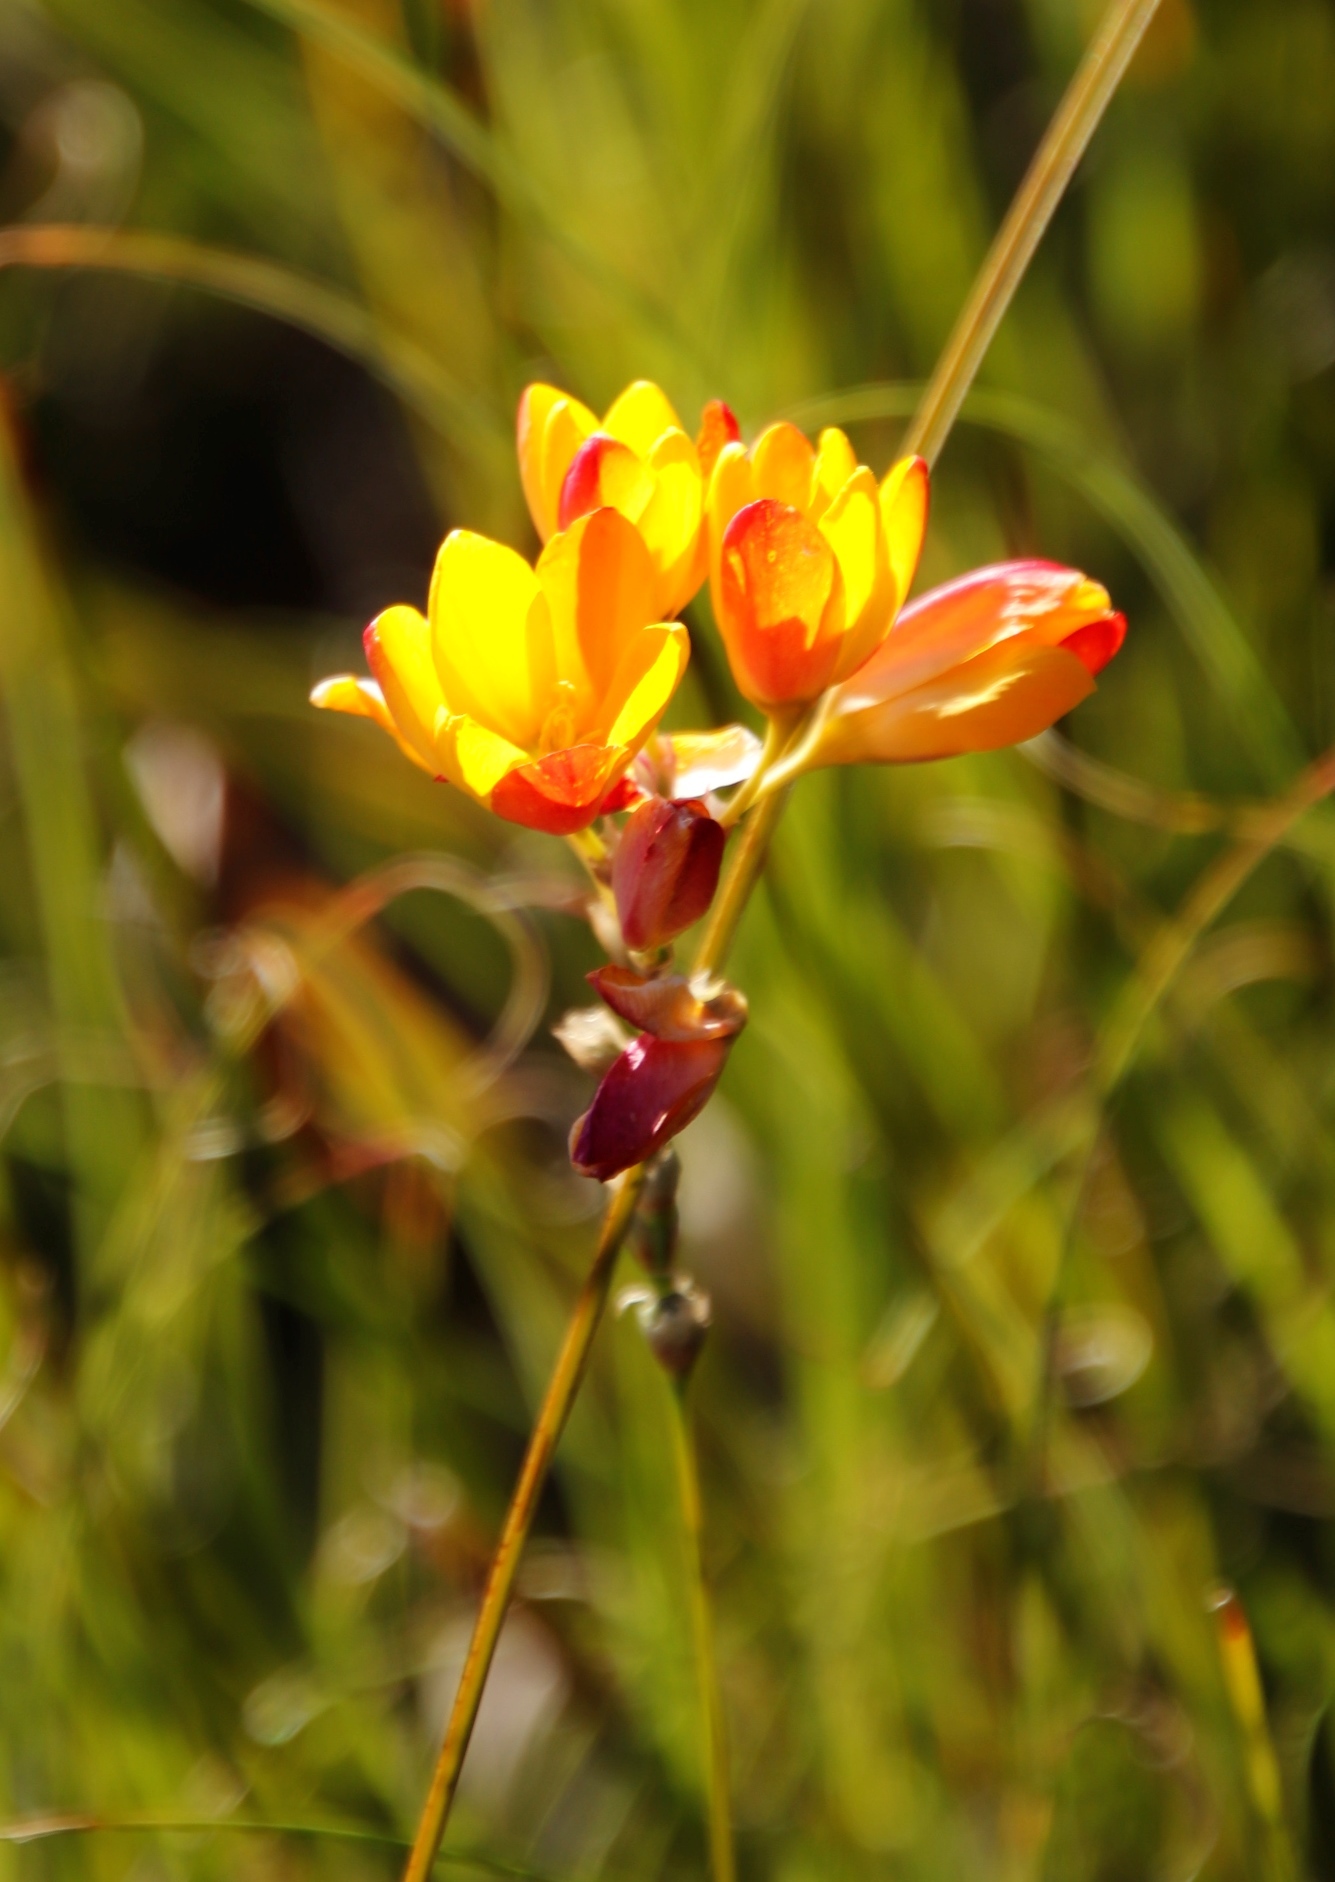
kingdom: Plantae
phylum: Tracheophyta
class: Liliopsida
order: Asparagales
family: Iridaceae
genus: Ixia
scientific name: Ixia dubia
